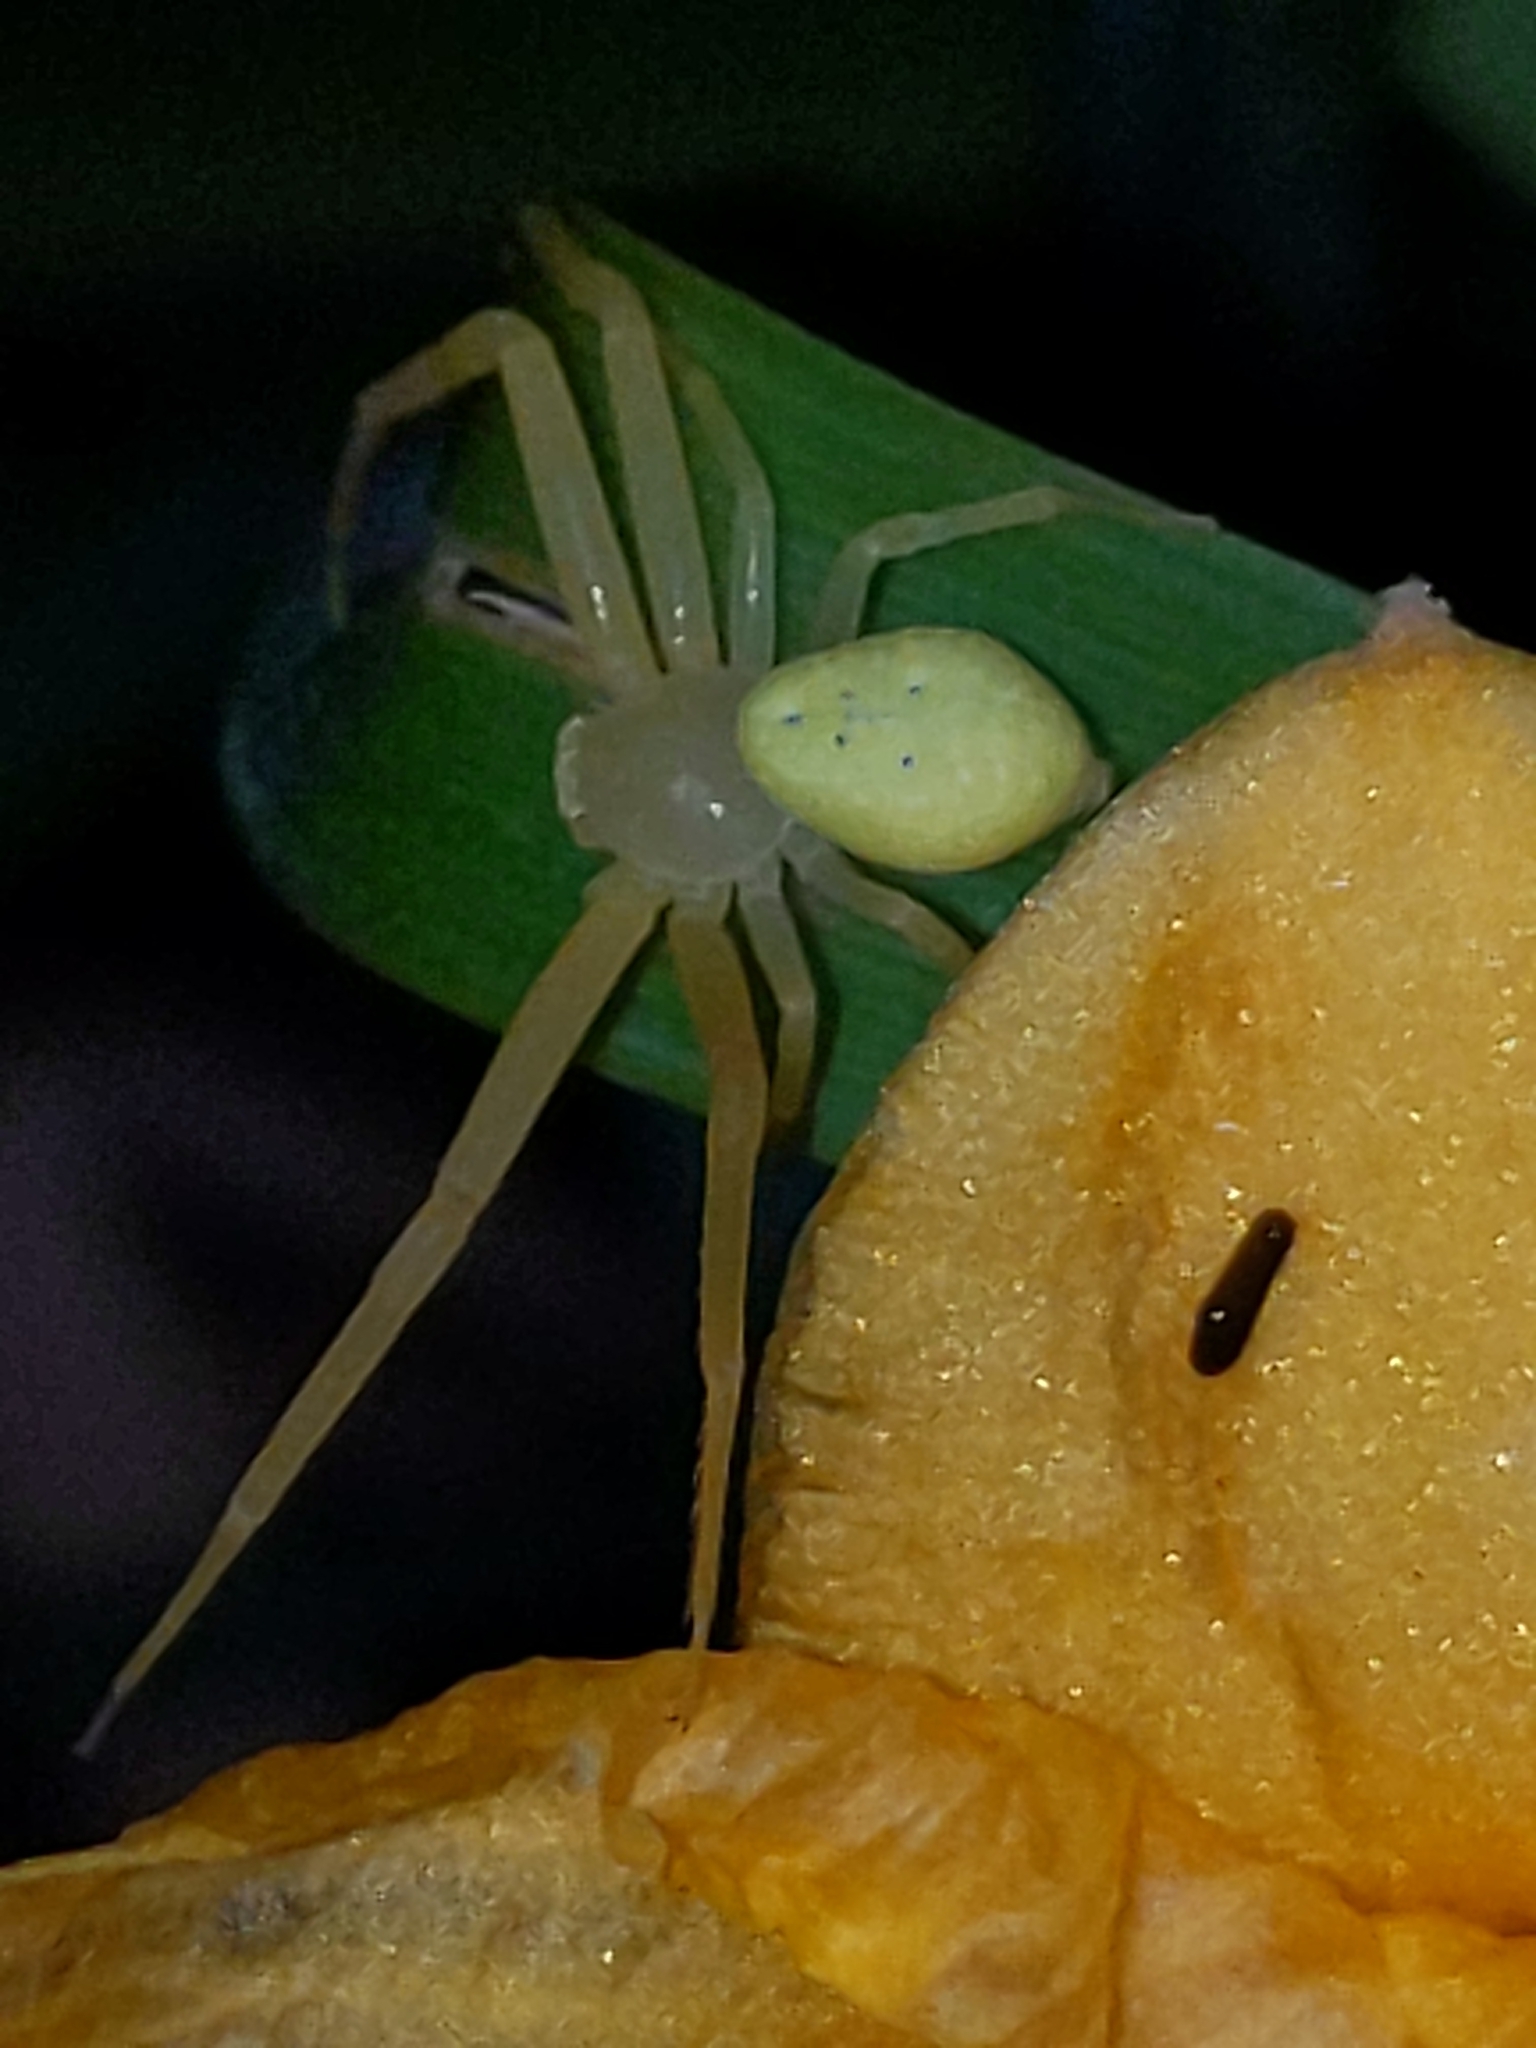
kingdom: Animalia
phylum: Arthropoda
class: Arachnida
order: Araneae
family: Thomisidae
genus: Misumessus
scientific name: Misumessus oblongus
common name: American green crab spider
